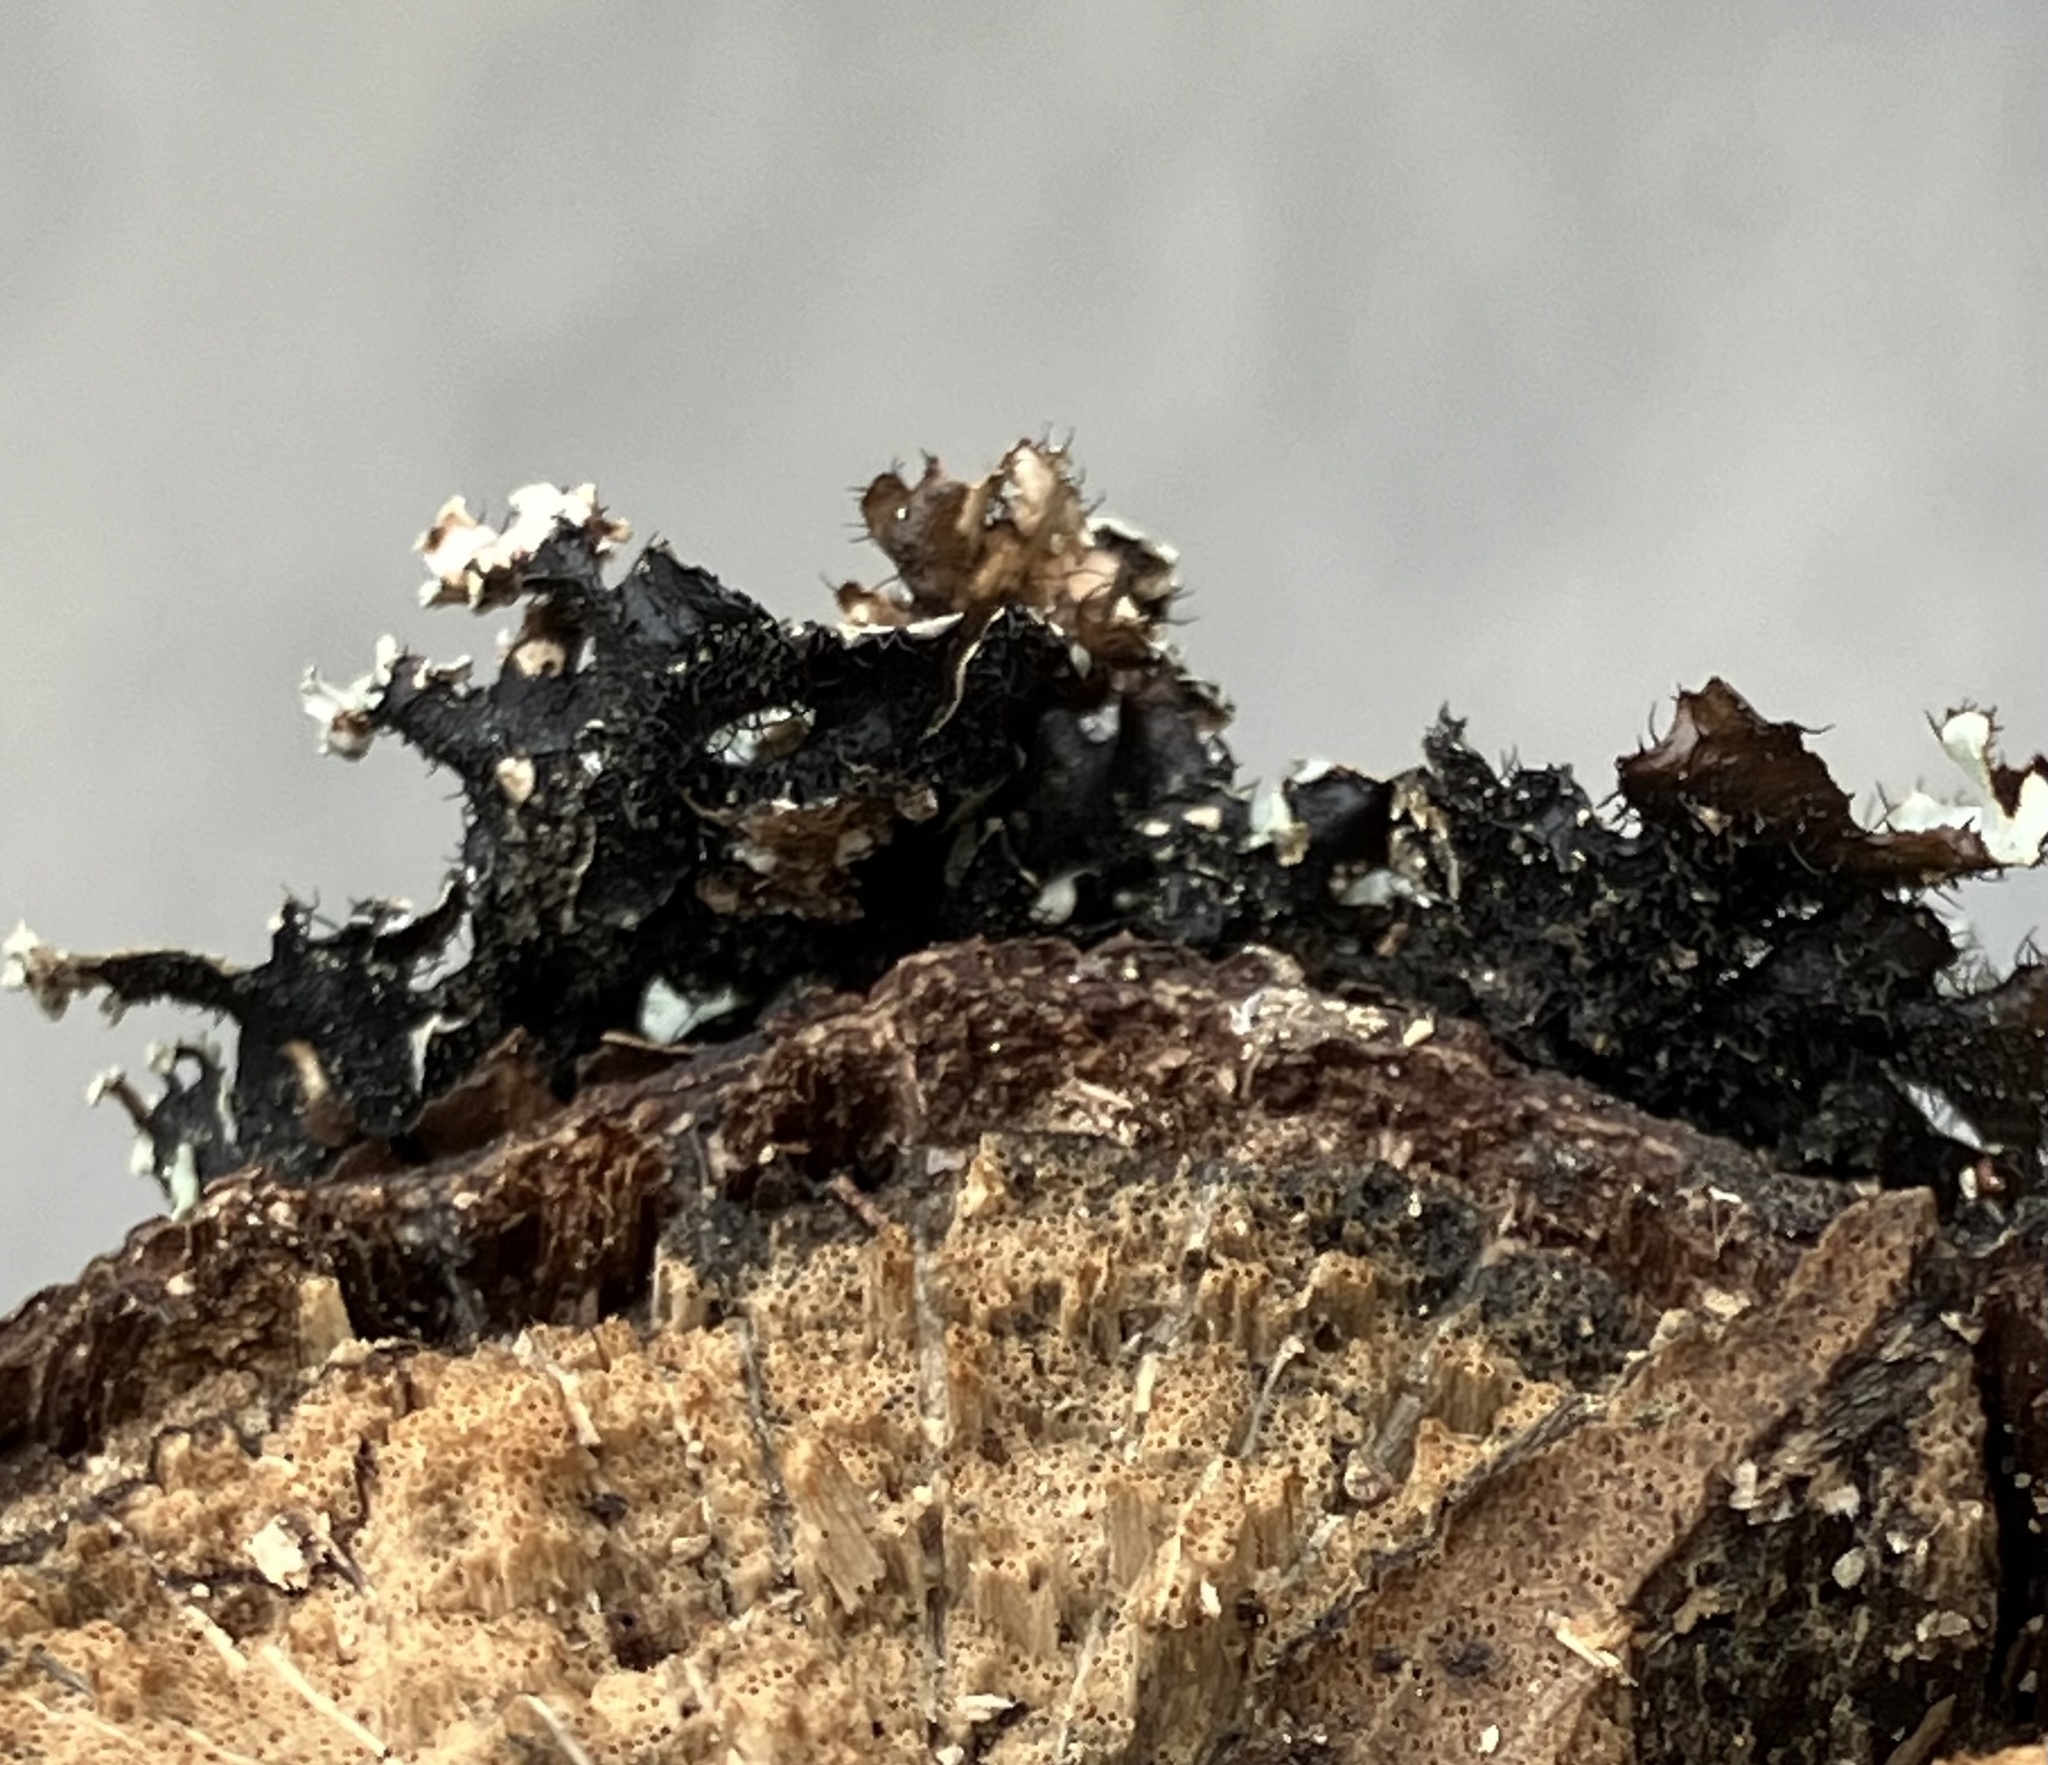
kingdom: Fungi
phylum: Ascomycota
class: Lecanoromycetes
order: Lecanorales
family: Parmeliaceae
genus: Parmotrema
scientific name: Parmotrema reticulatum
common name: Black sheet lichen
